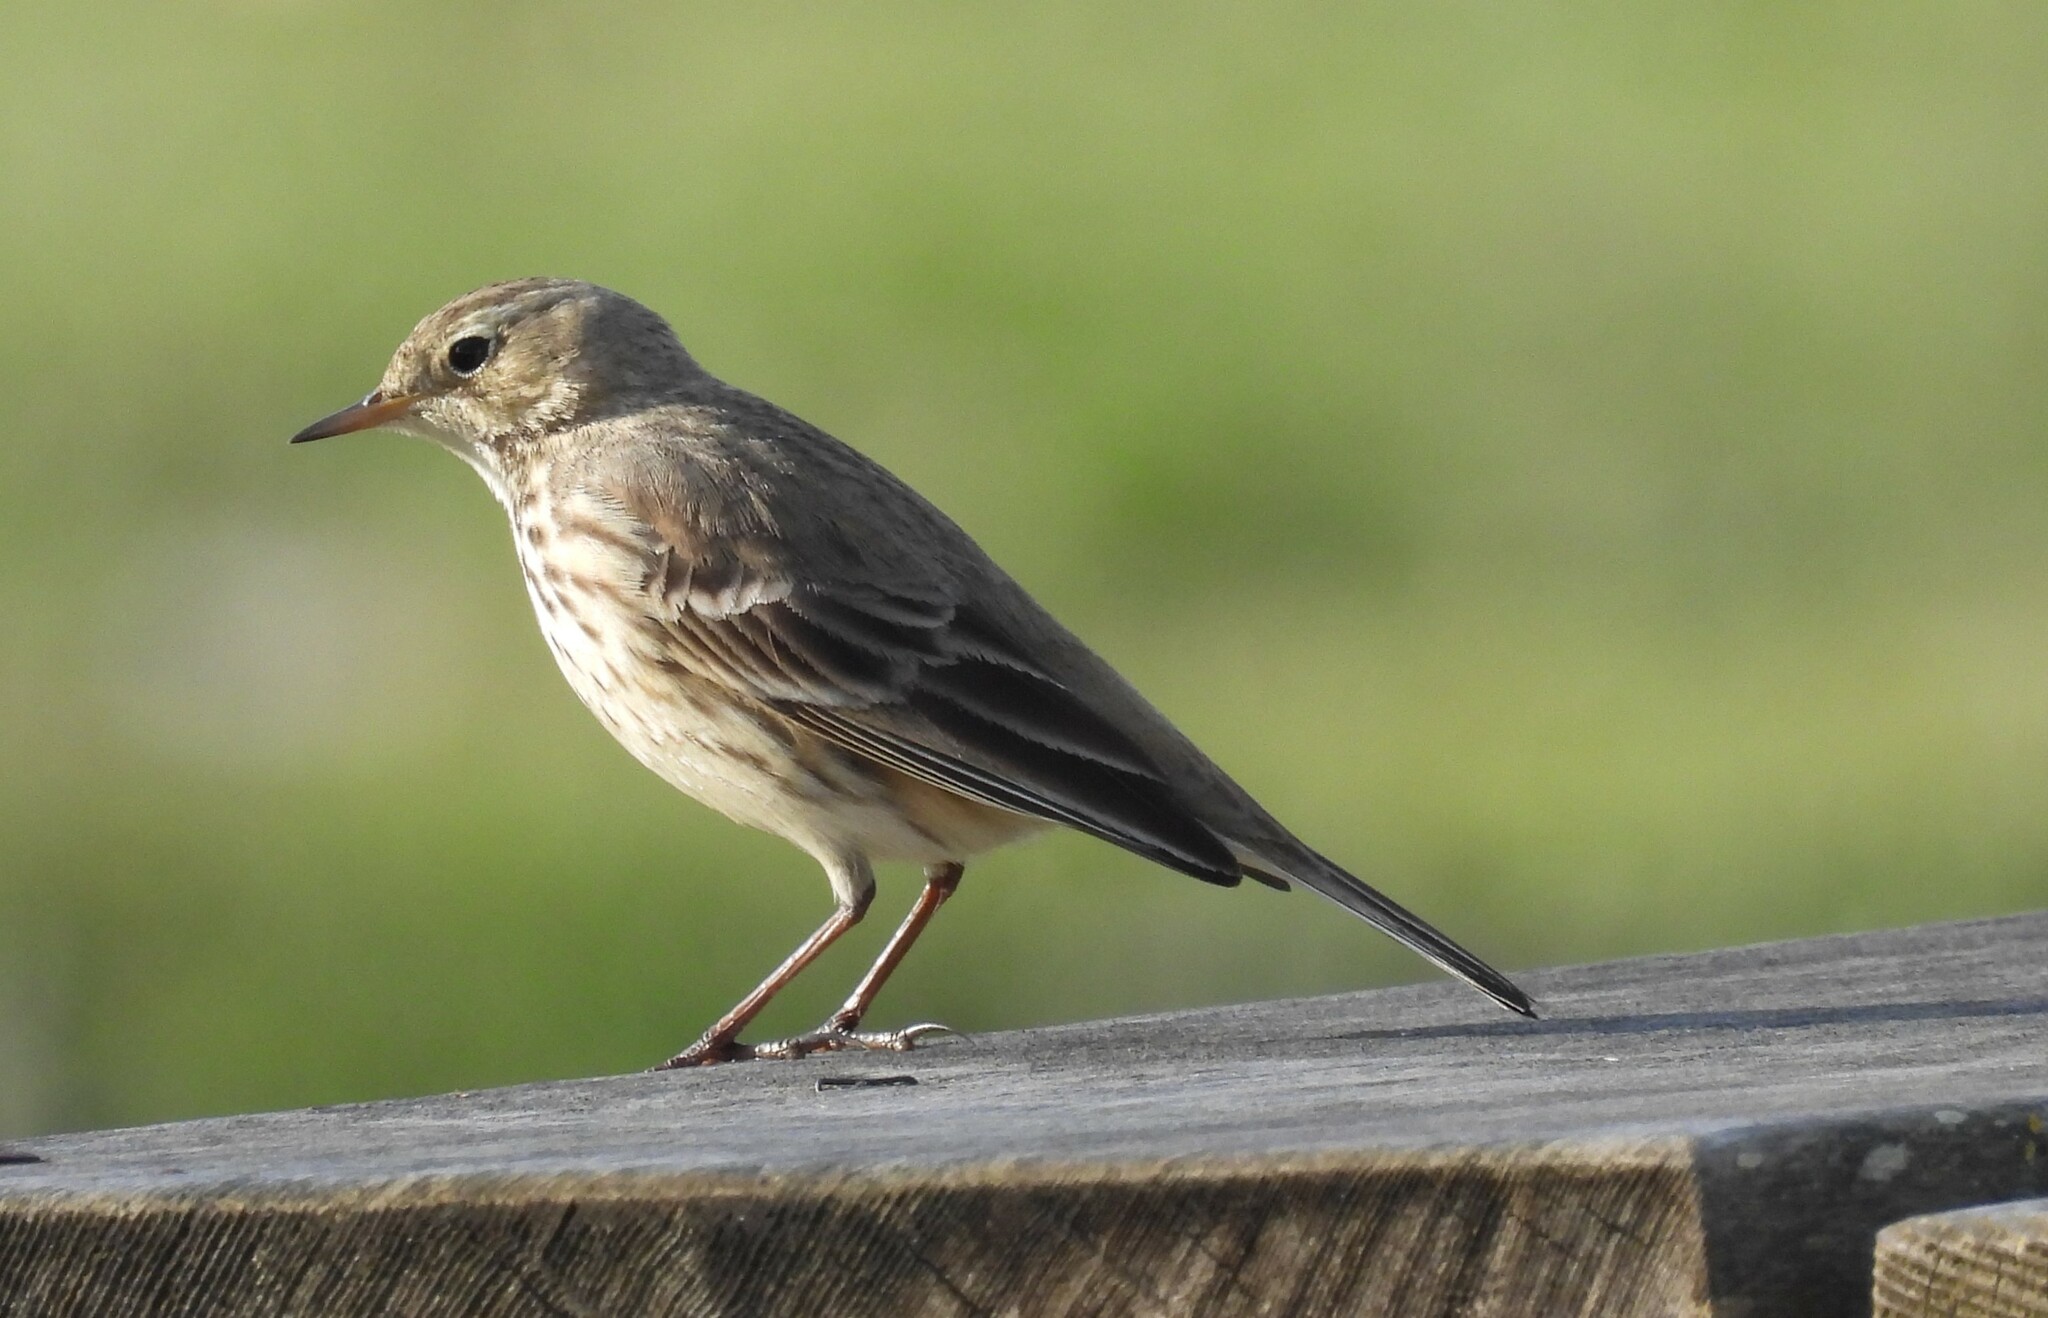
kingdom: Animalia
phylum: Chordata
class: Aves
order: Passeriformes
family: Motacillidae
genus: Anthus
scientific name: Anthus rubescens
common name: Buff-bellied pipit
